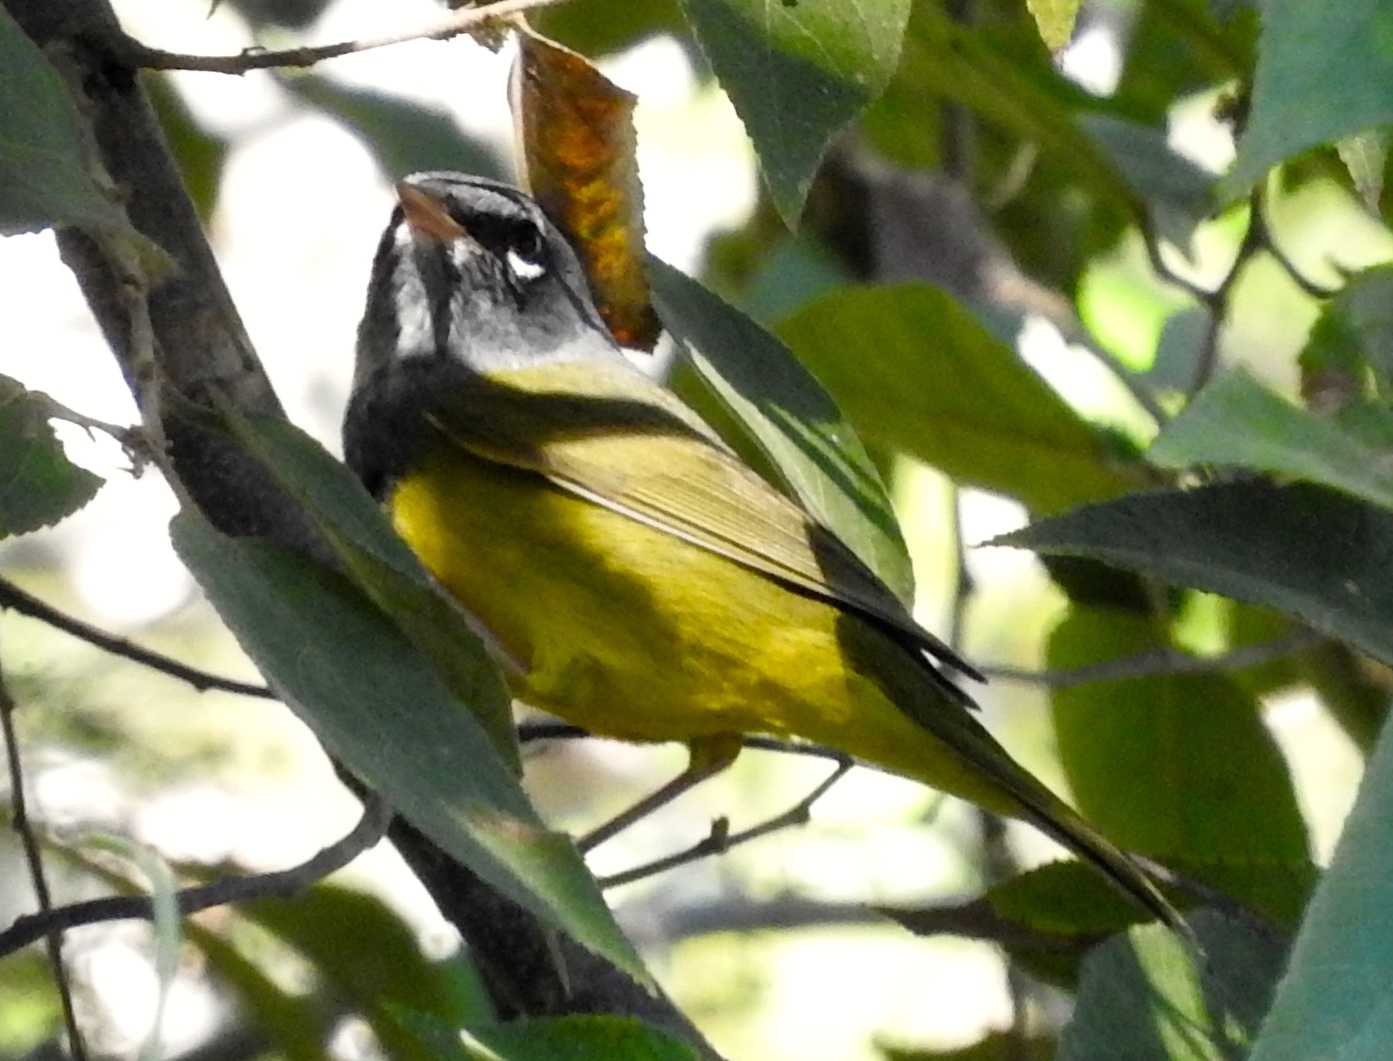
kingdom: Animalia
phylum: Chordata
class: Aves
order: Passeriformes
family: Parulidae
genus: Geothlypis
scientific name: Geothlypis tolmiei
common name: Macgillivray's warbler
